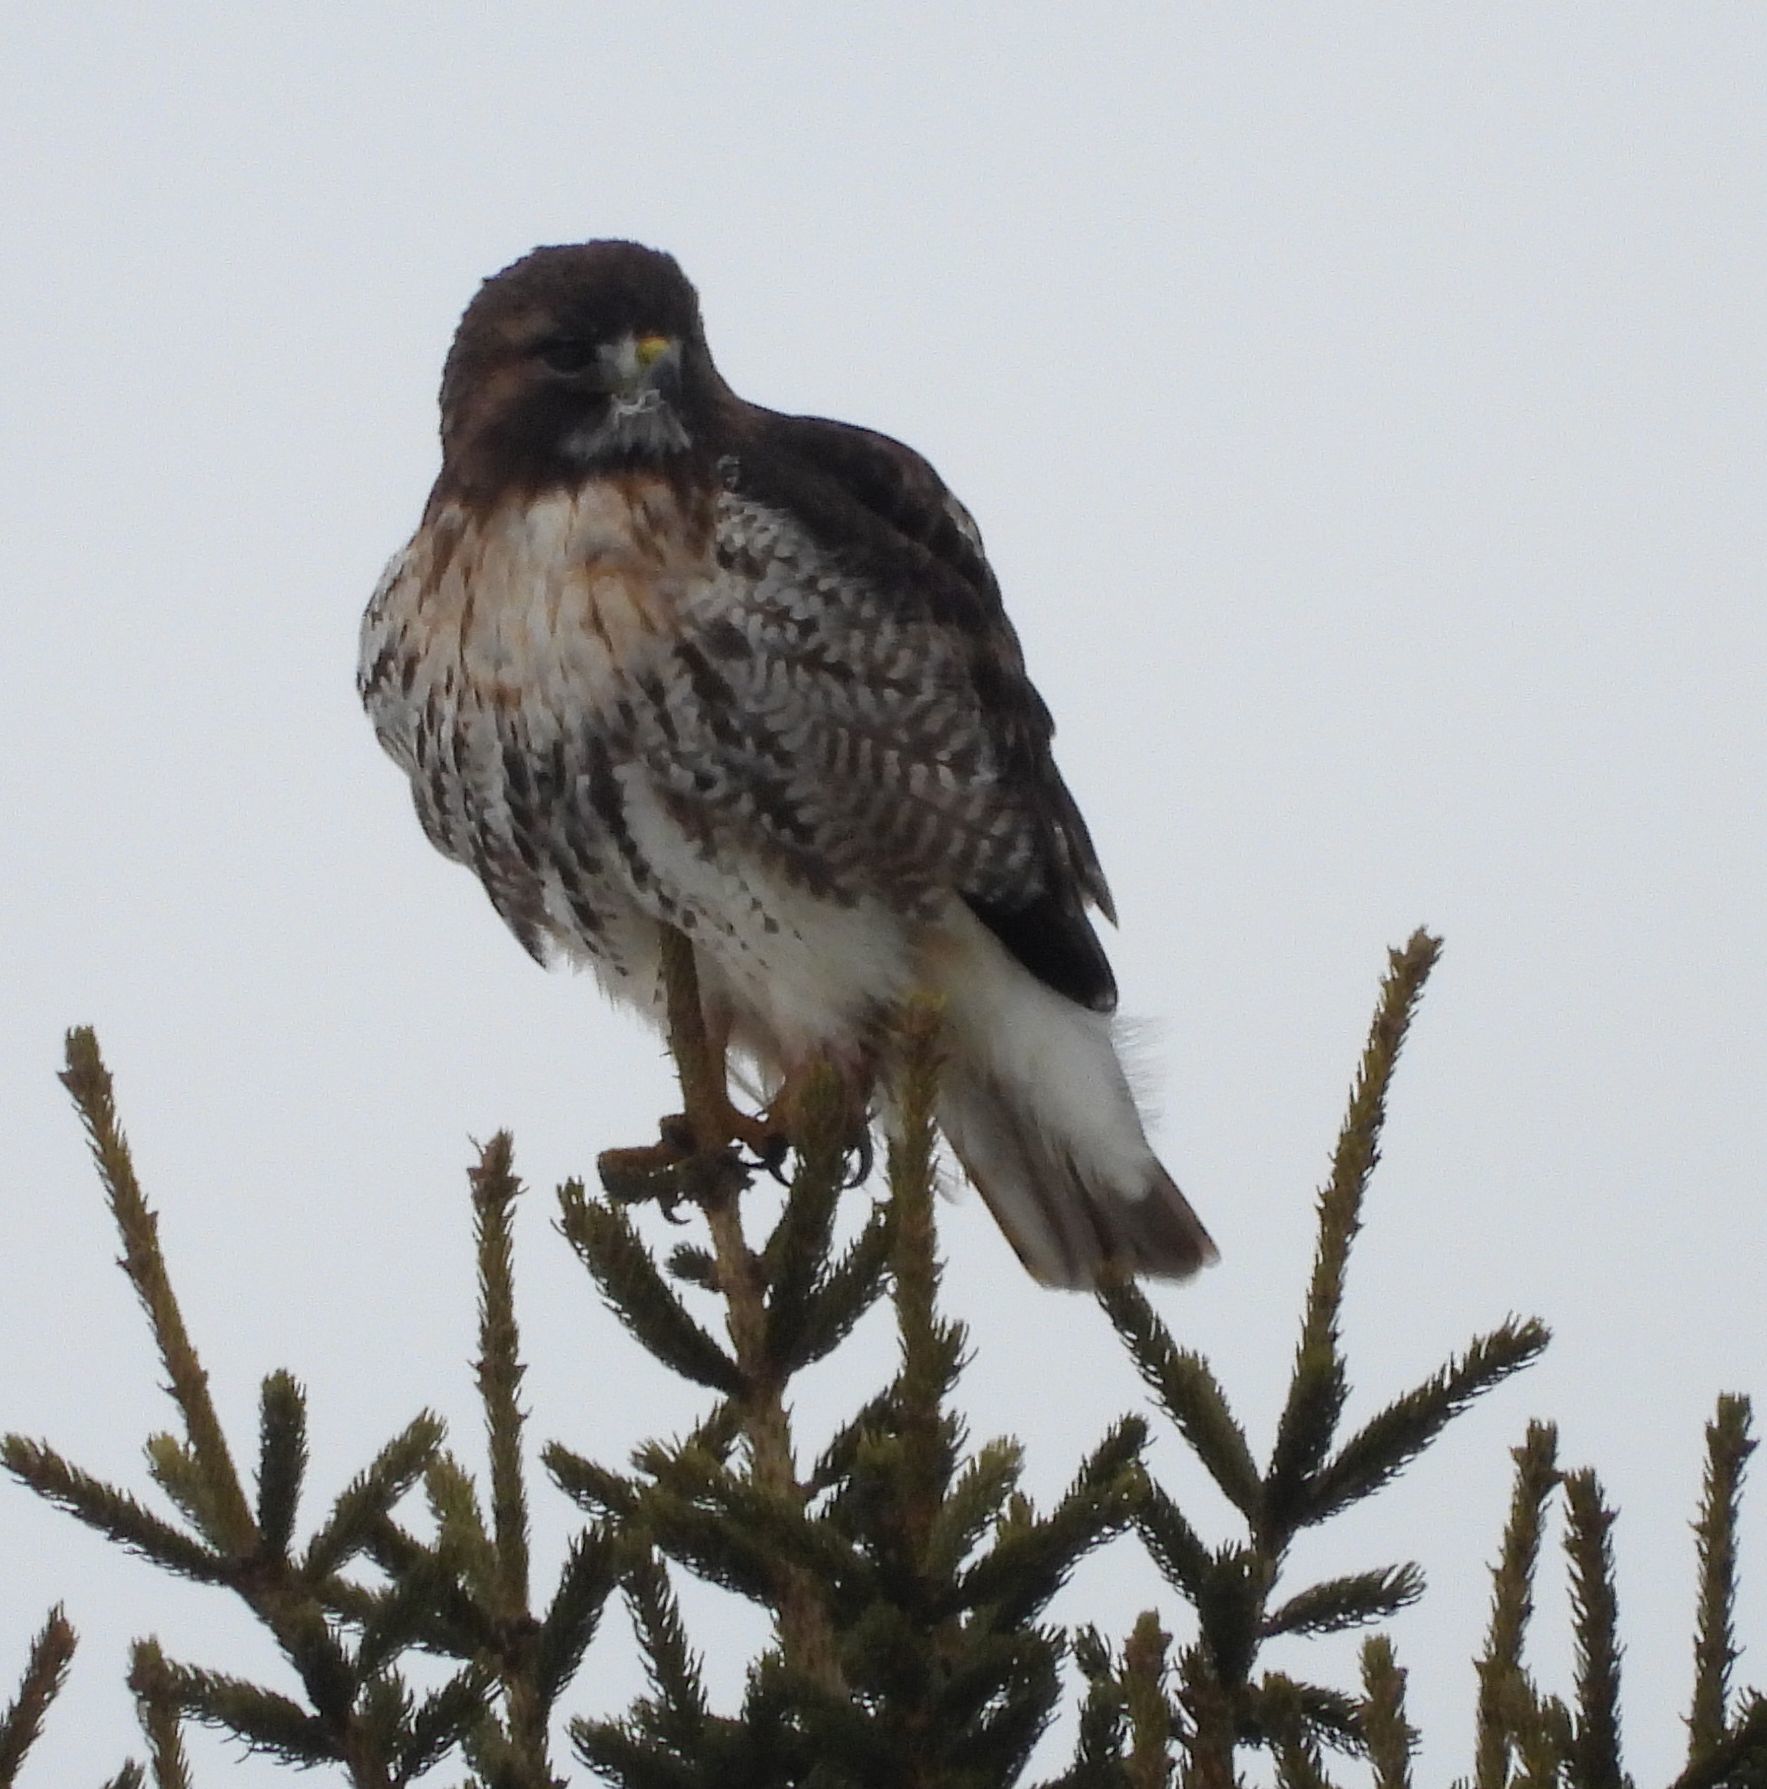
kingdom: Animalia
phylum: Chordata
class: Aves
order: Accipitriformes
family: Accipitridae
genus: Buteo
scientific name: Buteo jamaicensis
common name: Red-tailed hawk
